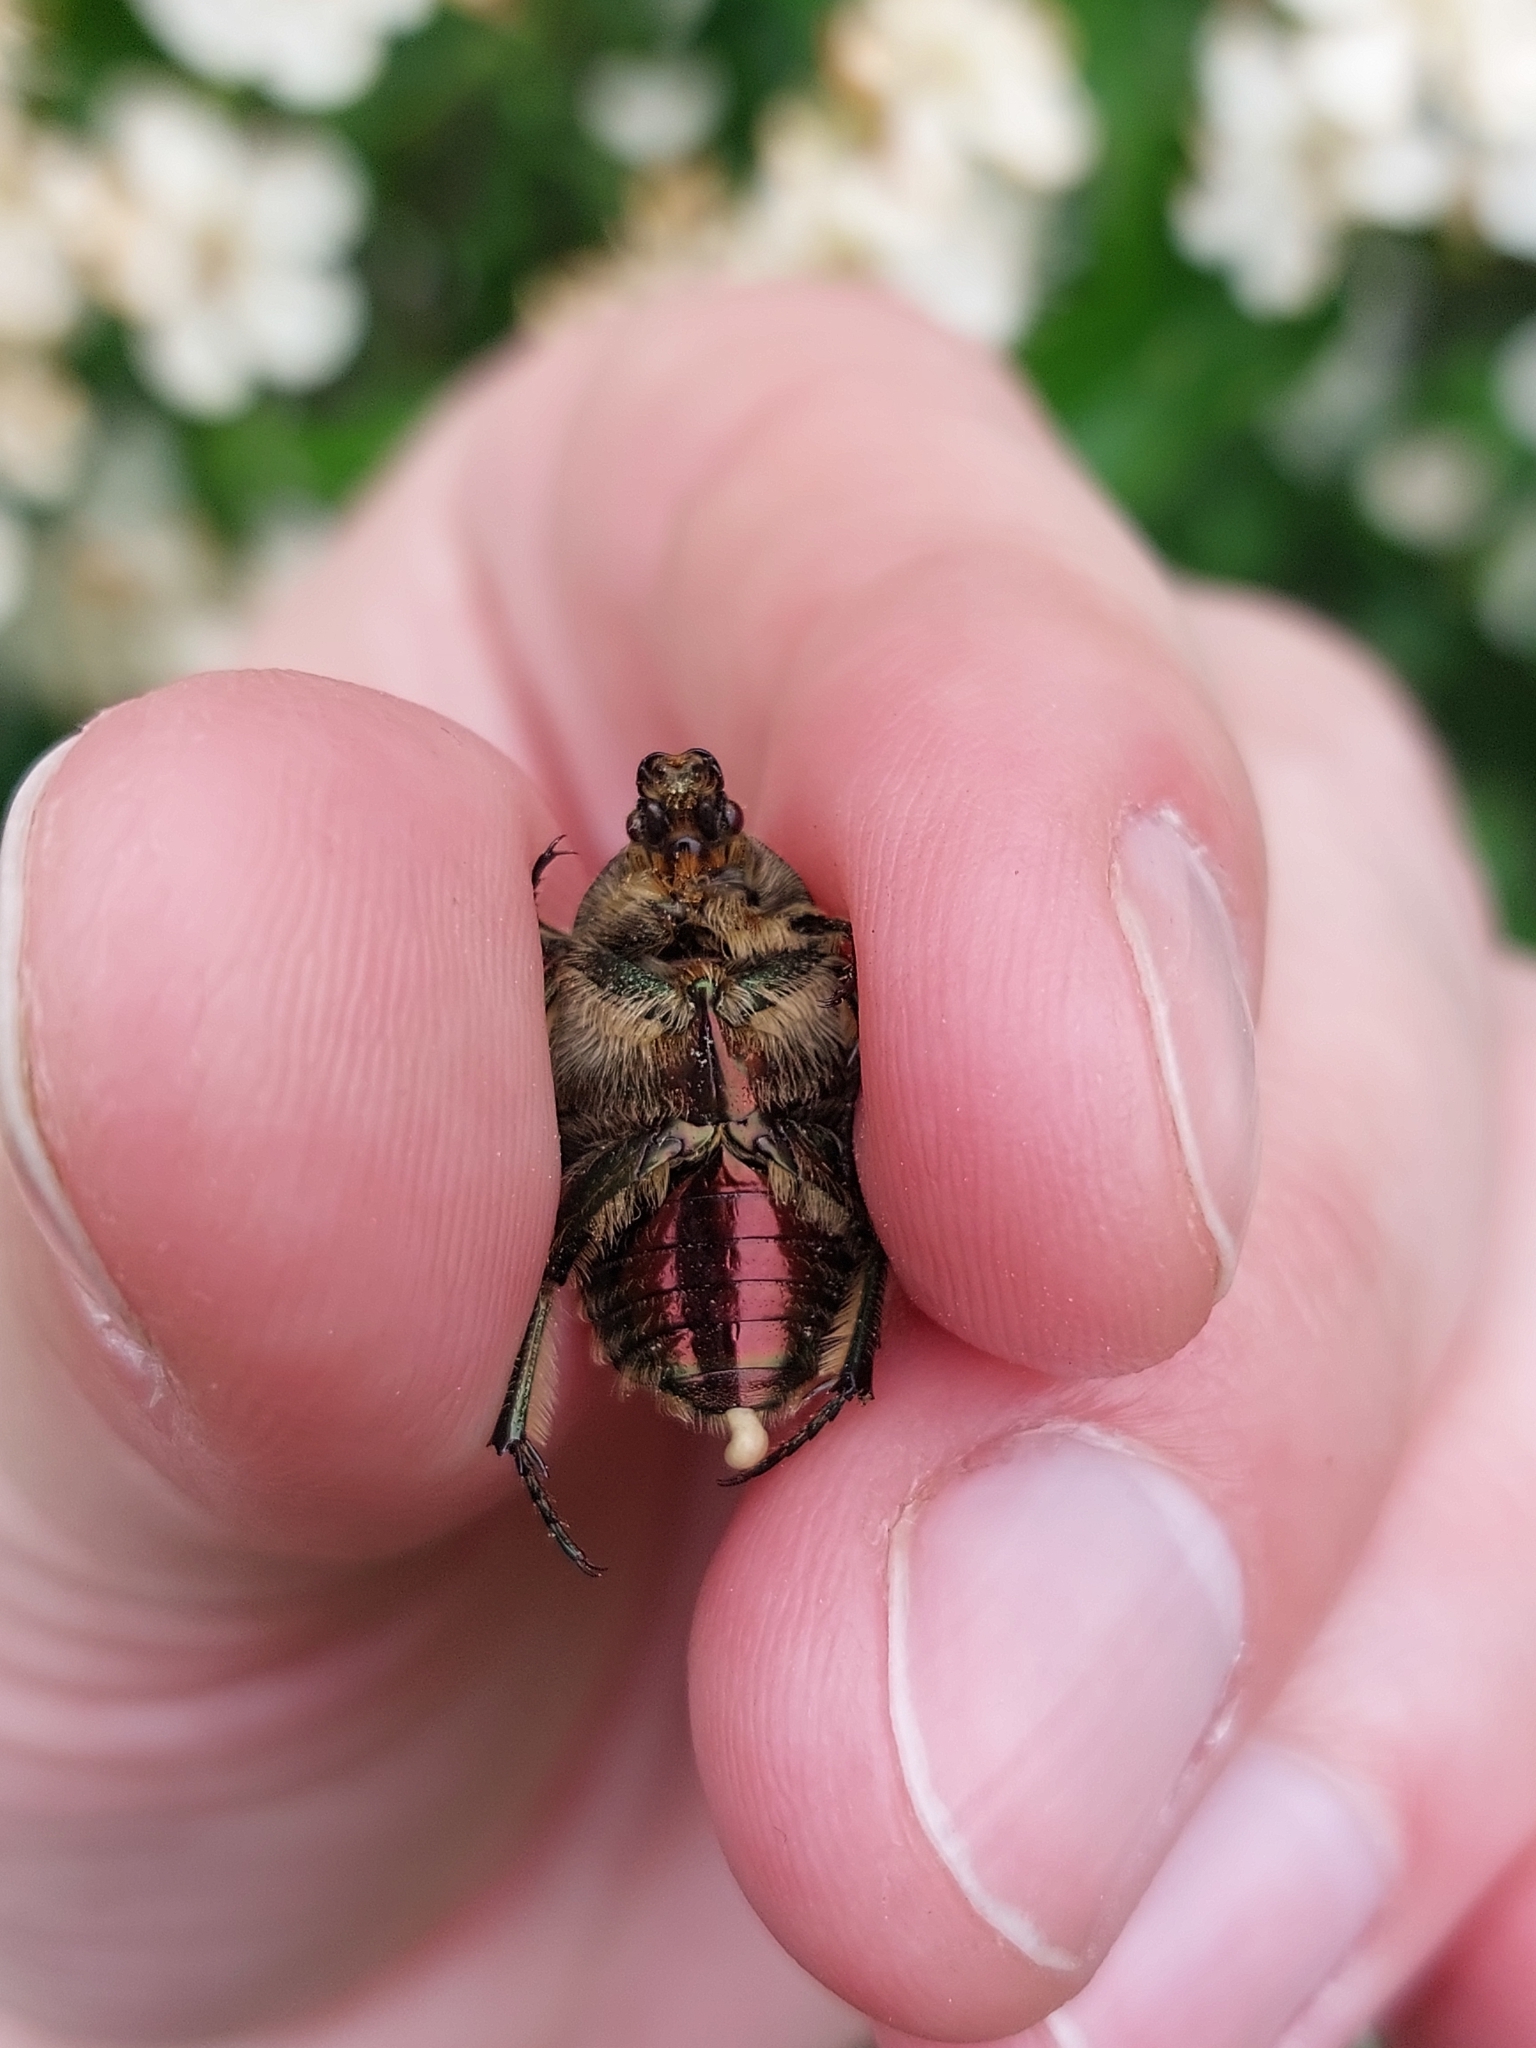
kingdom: Animalia
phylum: Arthropoda
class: Insecta
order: Coleoptera
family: Scarabaeidae
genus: Cetonia
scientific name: Cetonia aurata
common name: Rose chafer
